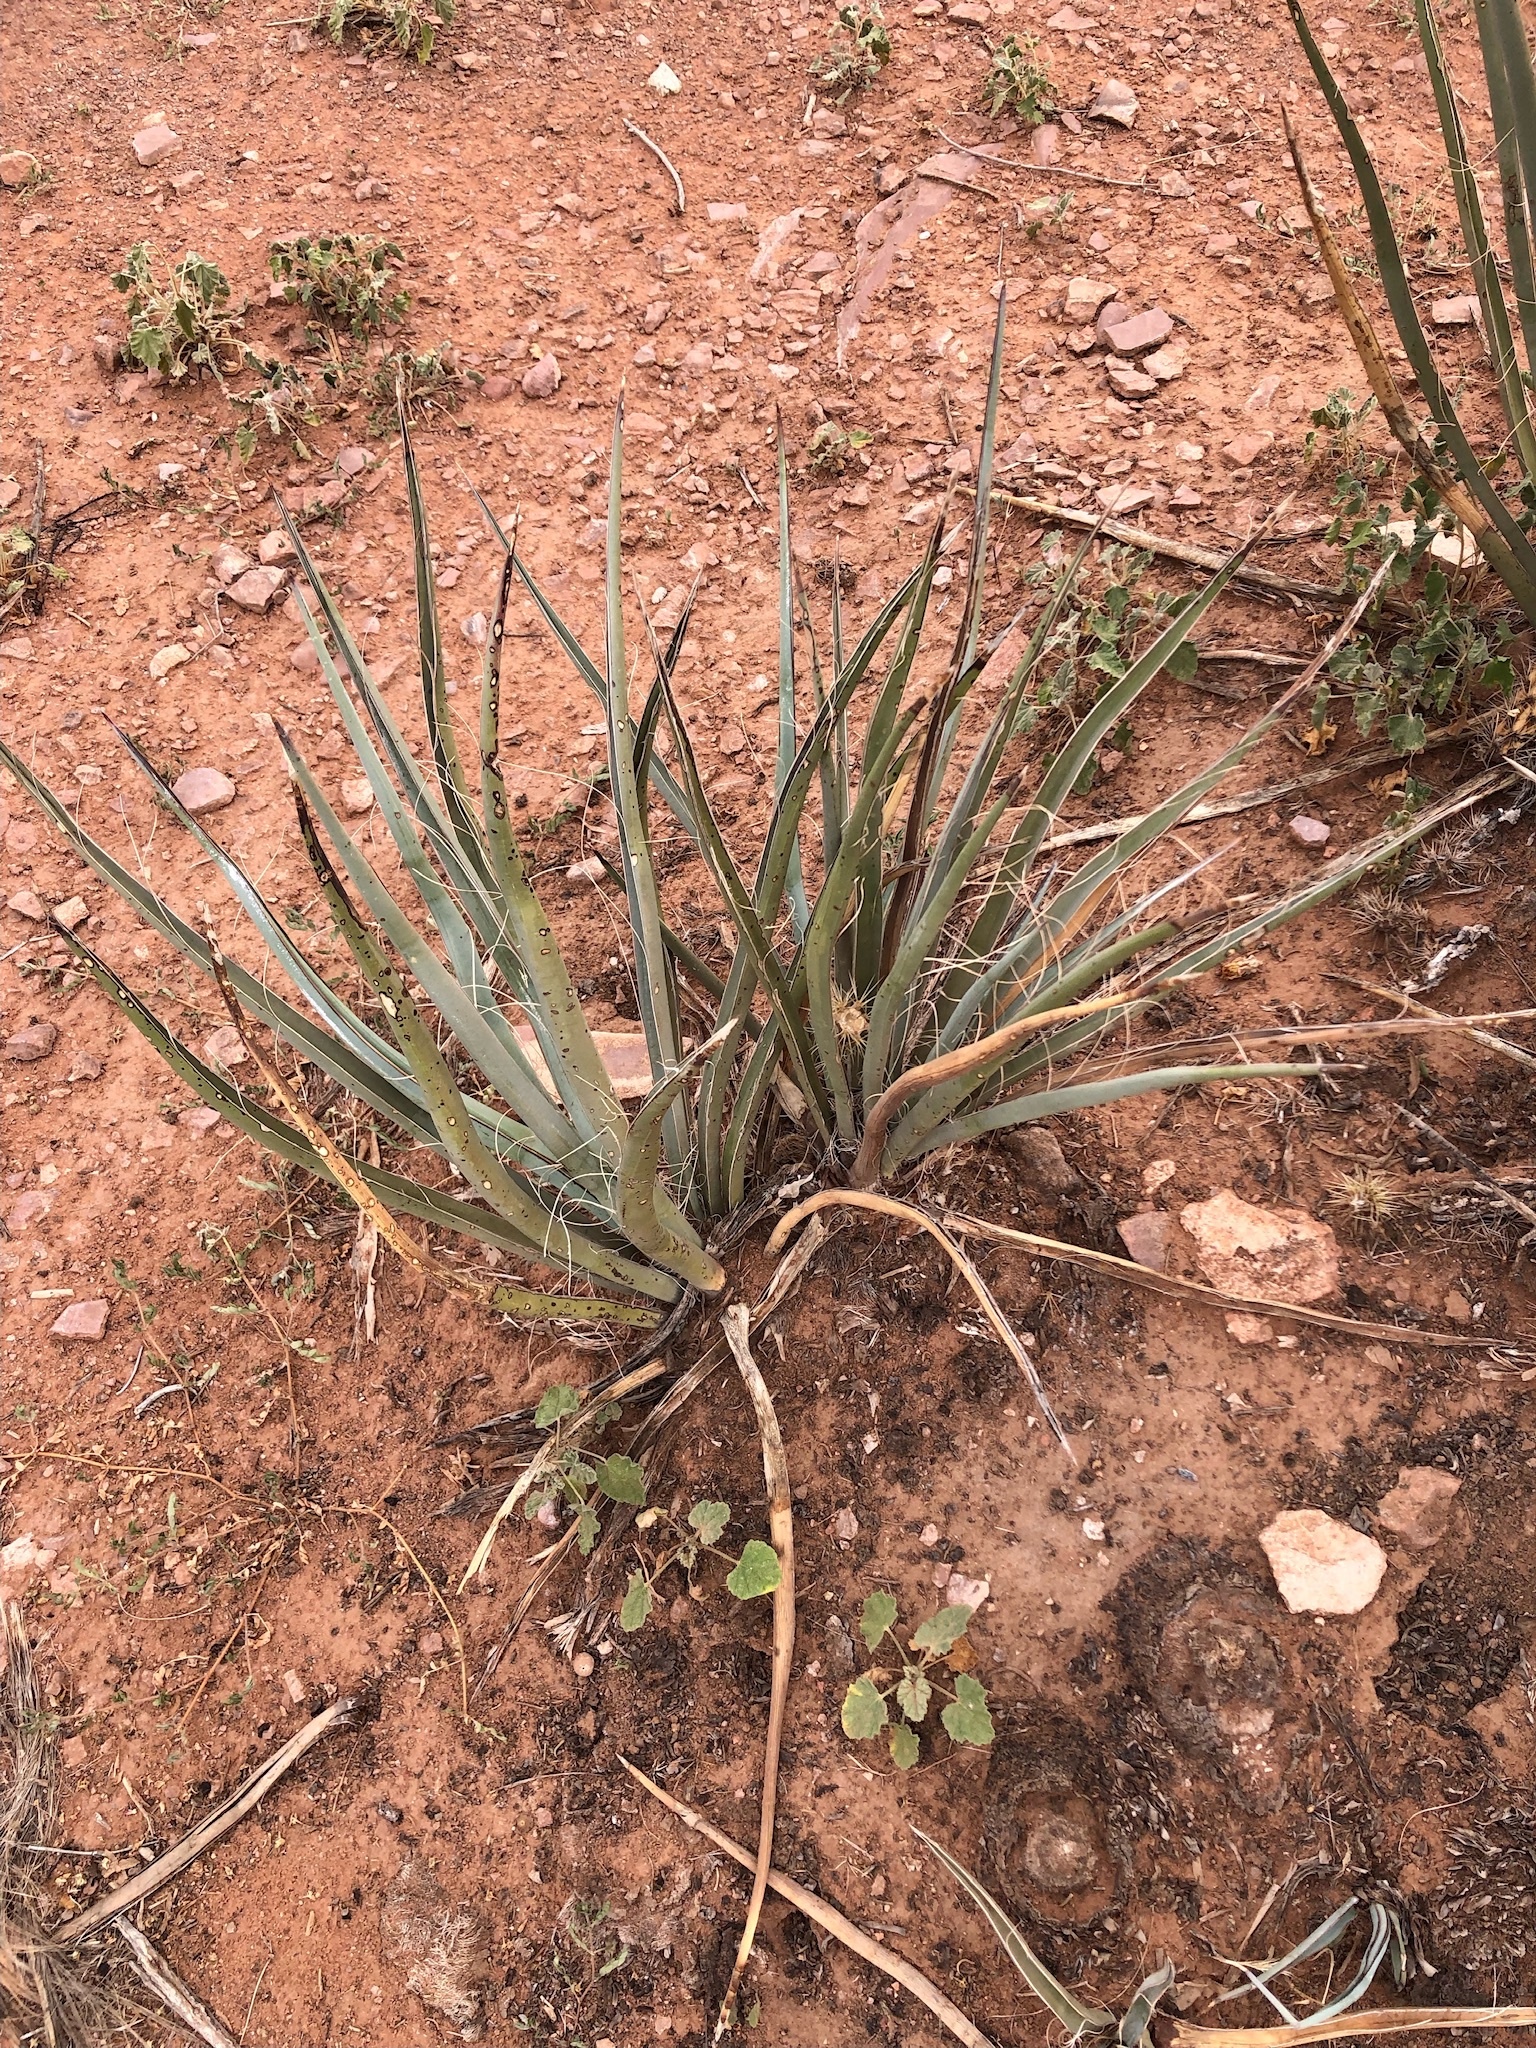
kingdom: Plantae
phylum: Tracheophyta
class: Liliopsida
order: Asparagales
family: Asparagaceae
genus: Yucca
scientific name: Yucca angustissima
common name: Narrowleaf yucca
